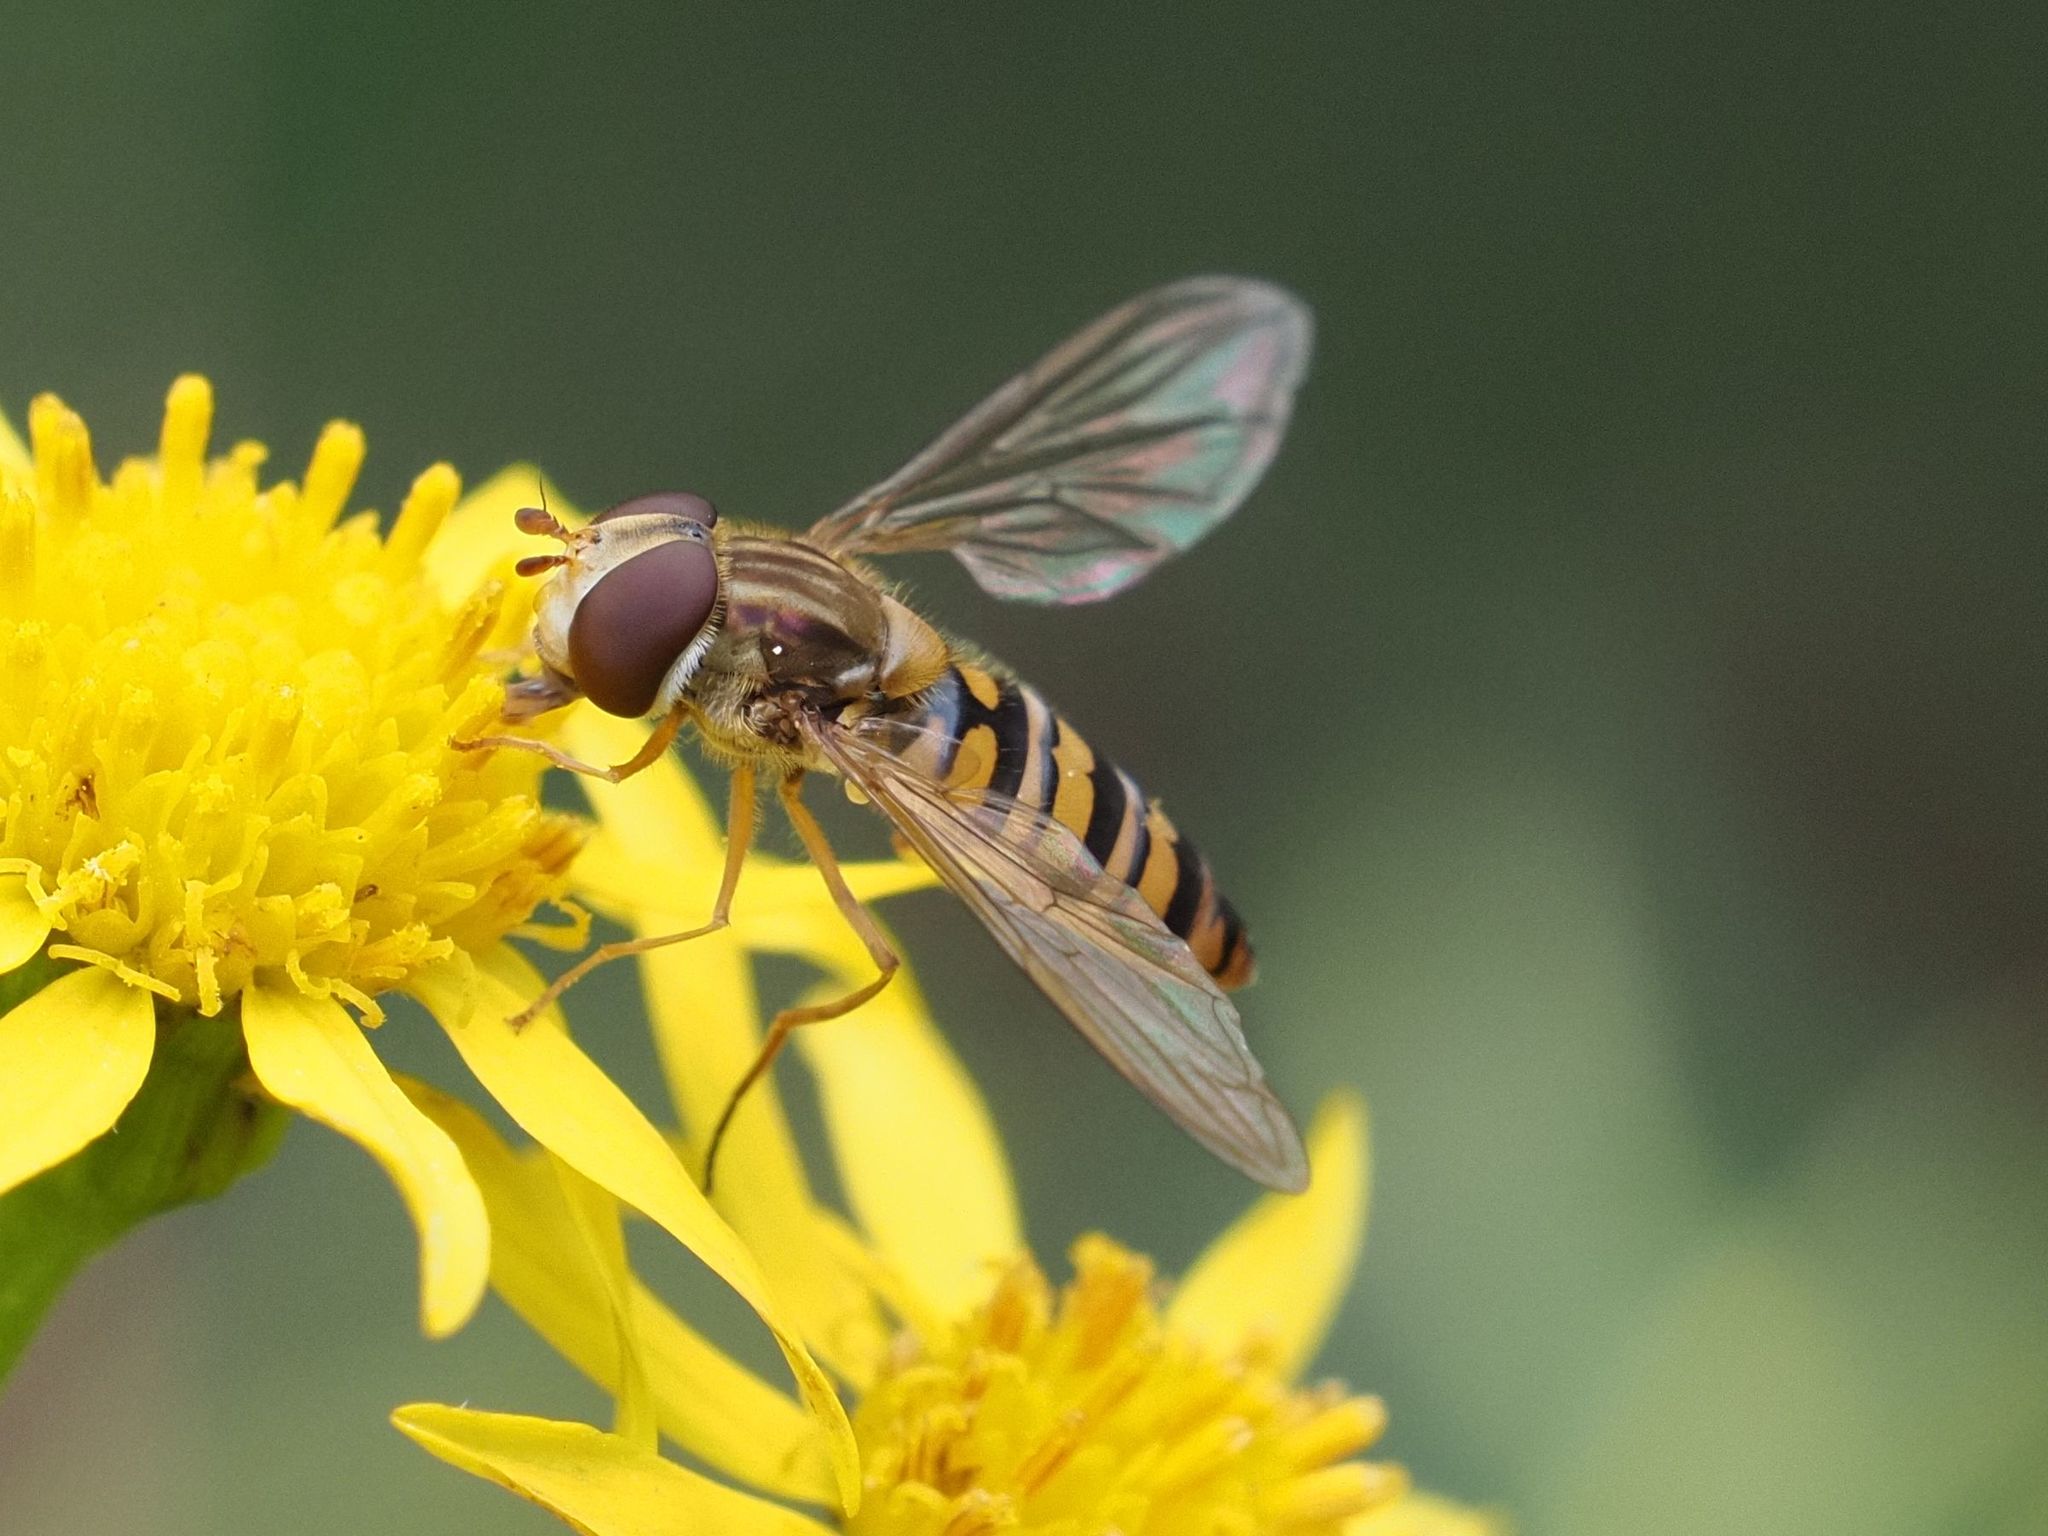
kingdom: Animalia
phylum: Arthropoda
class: Insecta
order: Diptera
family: Syrphidae
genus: Episyrphus
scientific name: Episyrphus balteatus
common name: Marmalade hoverfly
